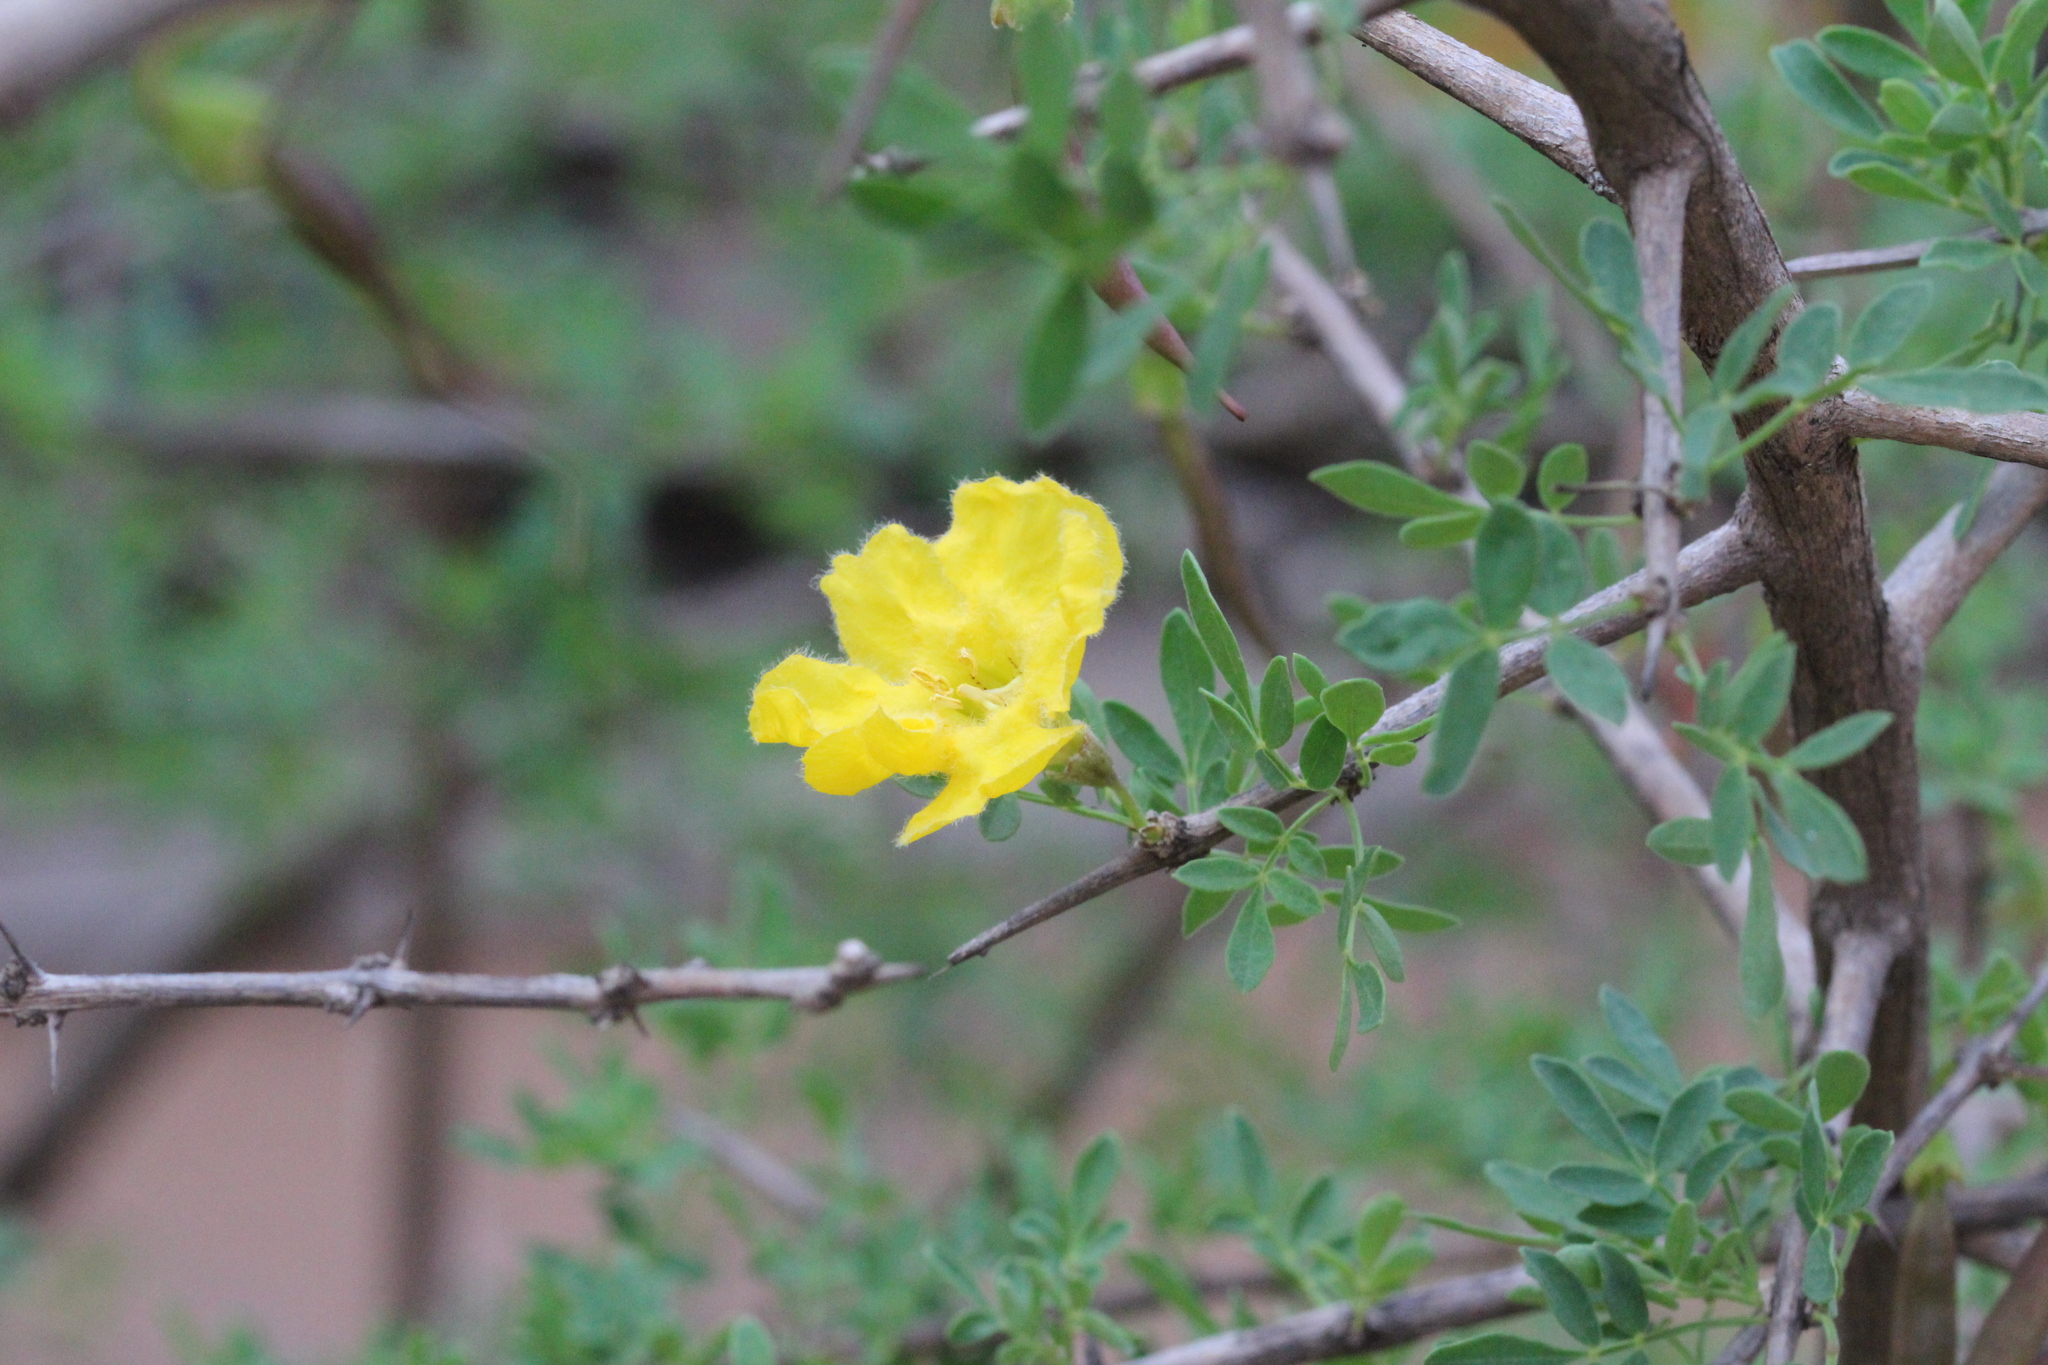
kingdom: Plantae
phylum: Tracheophyta
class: Magnoliopsida
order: Lamiales
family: Bignoniaceae
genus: Rhigozum
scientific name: Rhigozum brevispinosum
